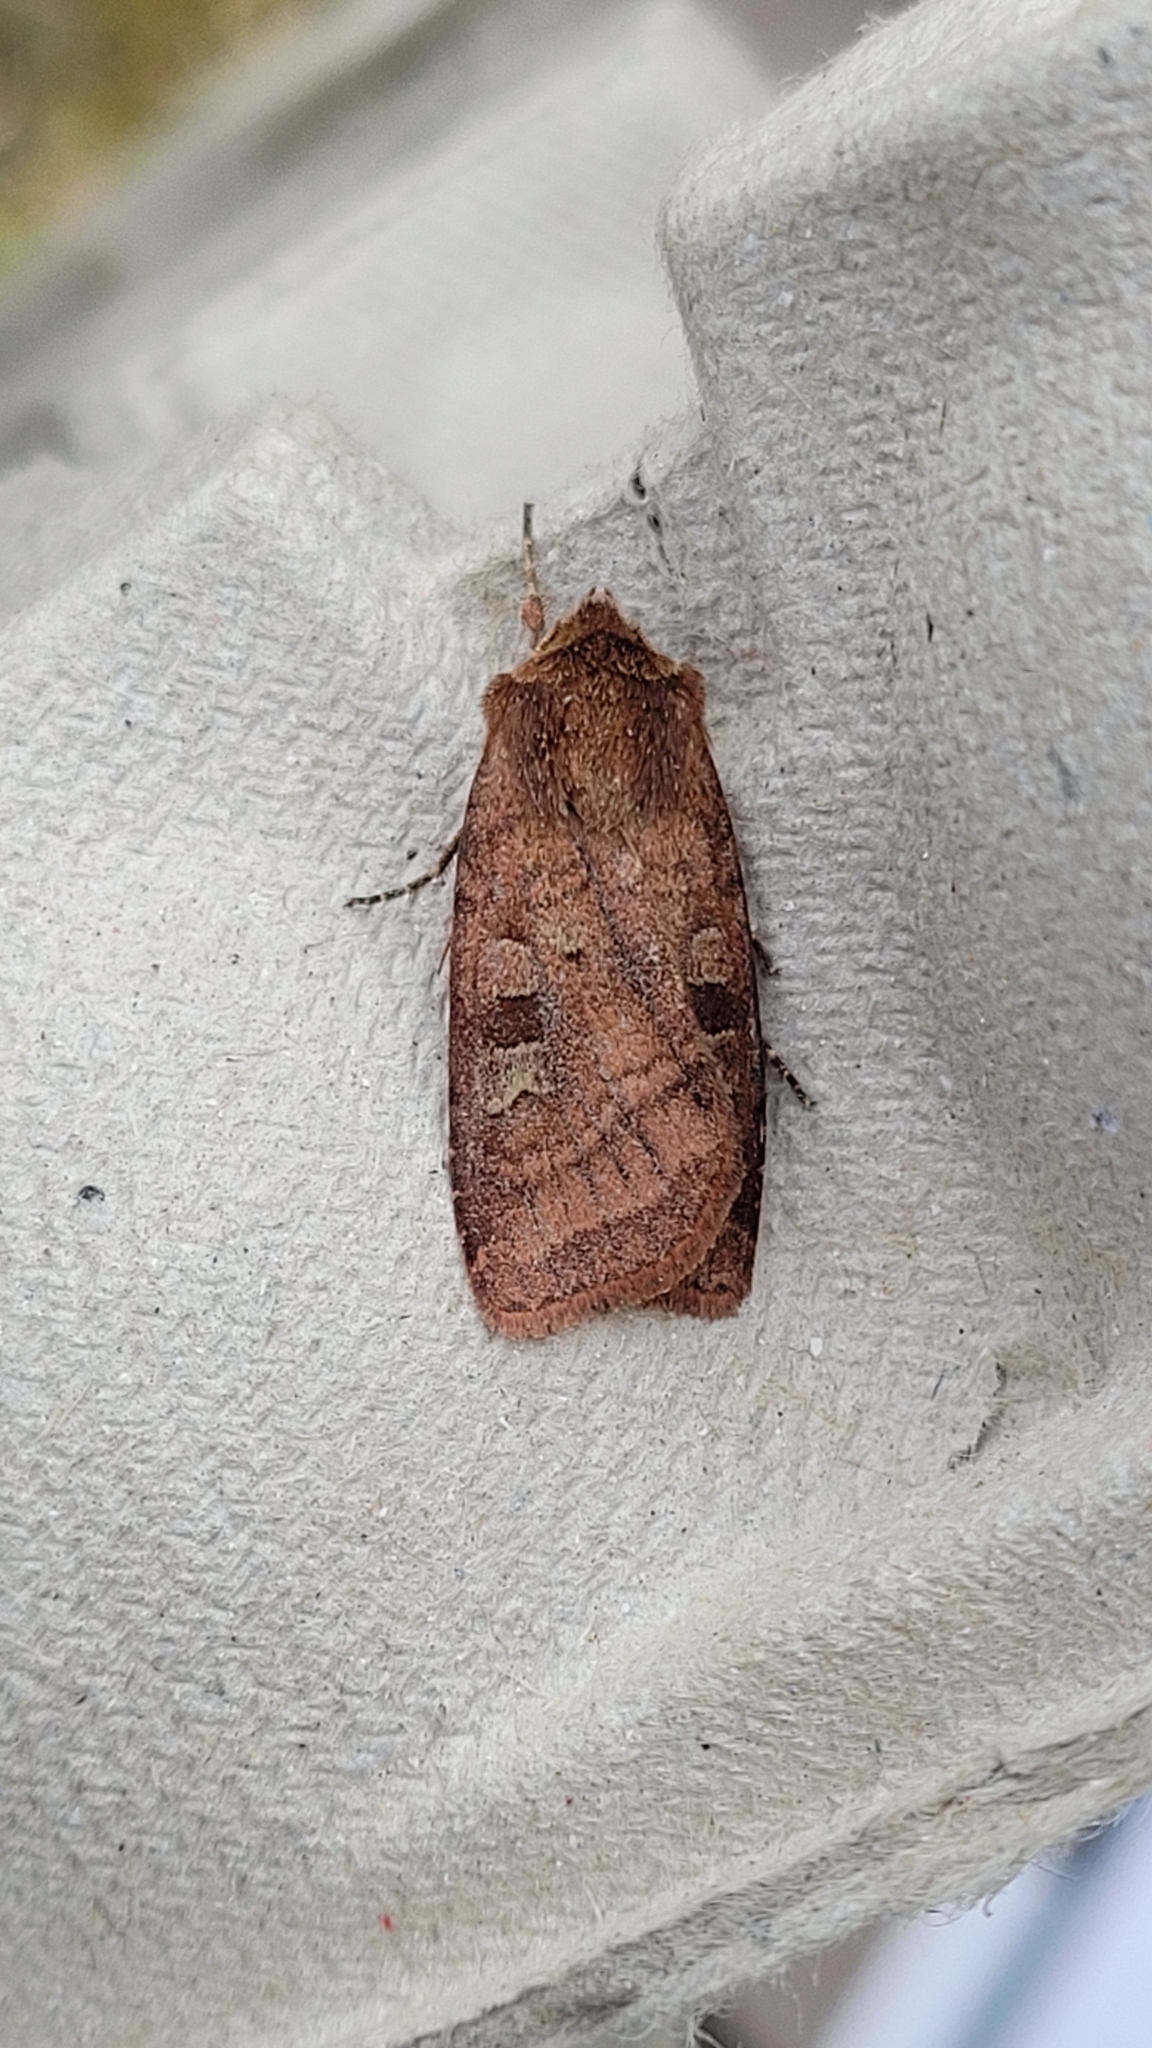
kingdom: Animalia
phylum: Arthropoda
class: Insecta
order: Lepidoptera
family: Noctuidae
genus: Diarsia
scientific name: Diarsia rubi
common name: Small square-spot
